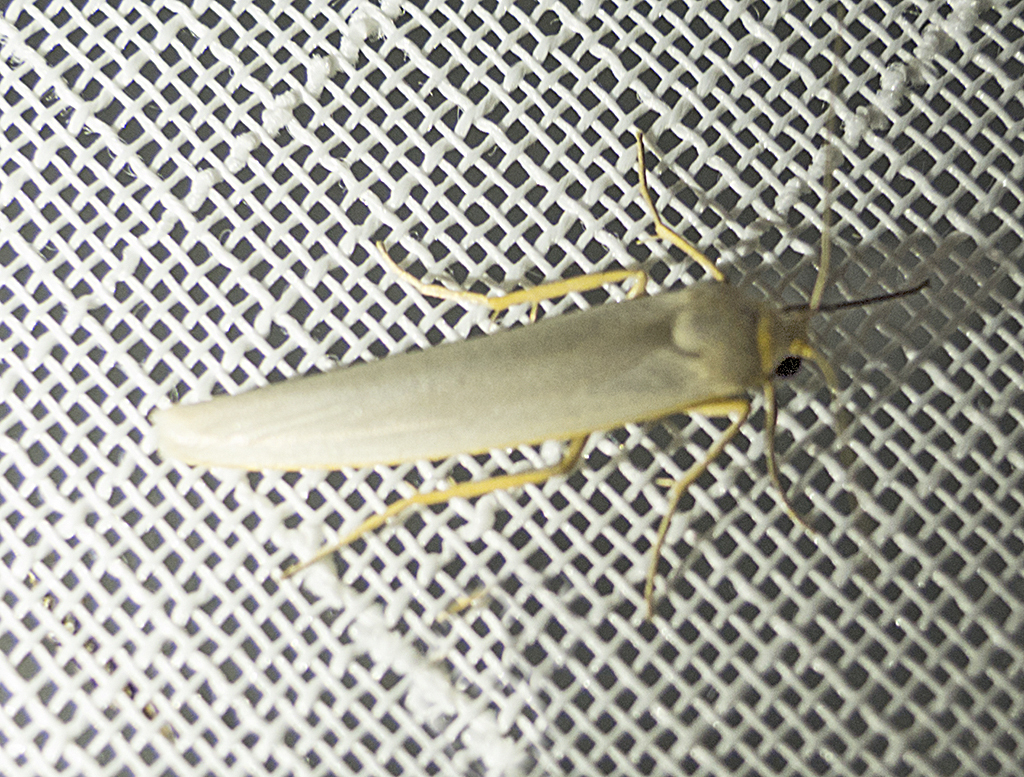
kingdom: Animalia
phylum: Arthropoda
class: Insecta
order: Lepidoptera
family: Erebidae
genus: Eilema
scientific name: Eilema caniola
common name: Hoary footman
